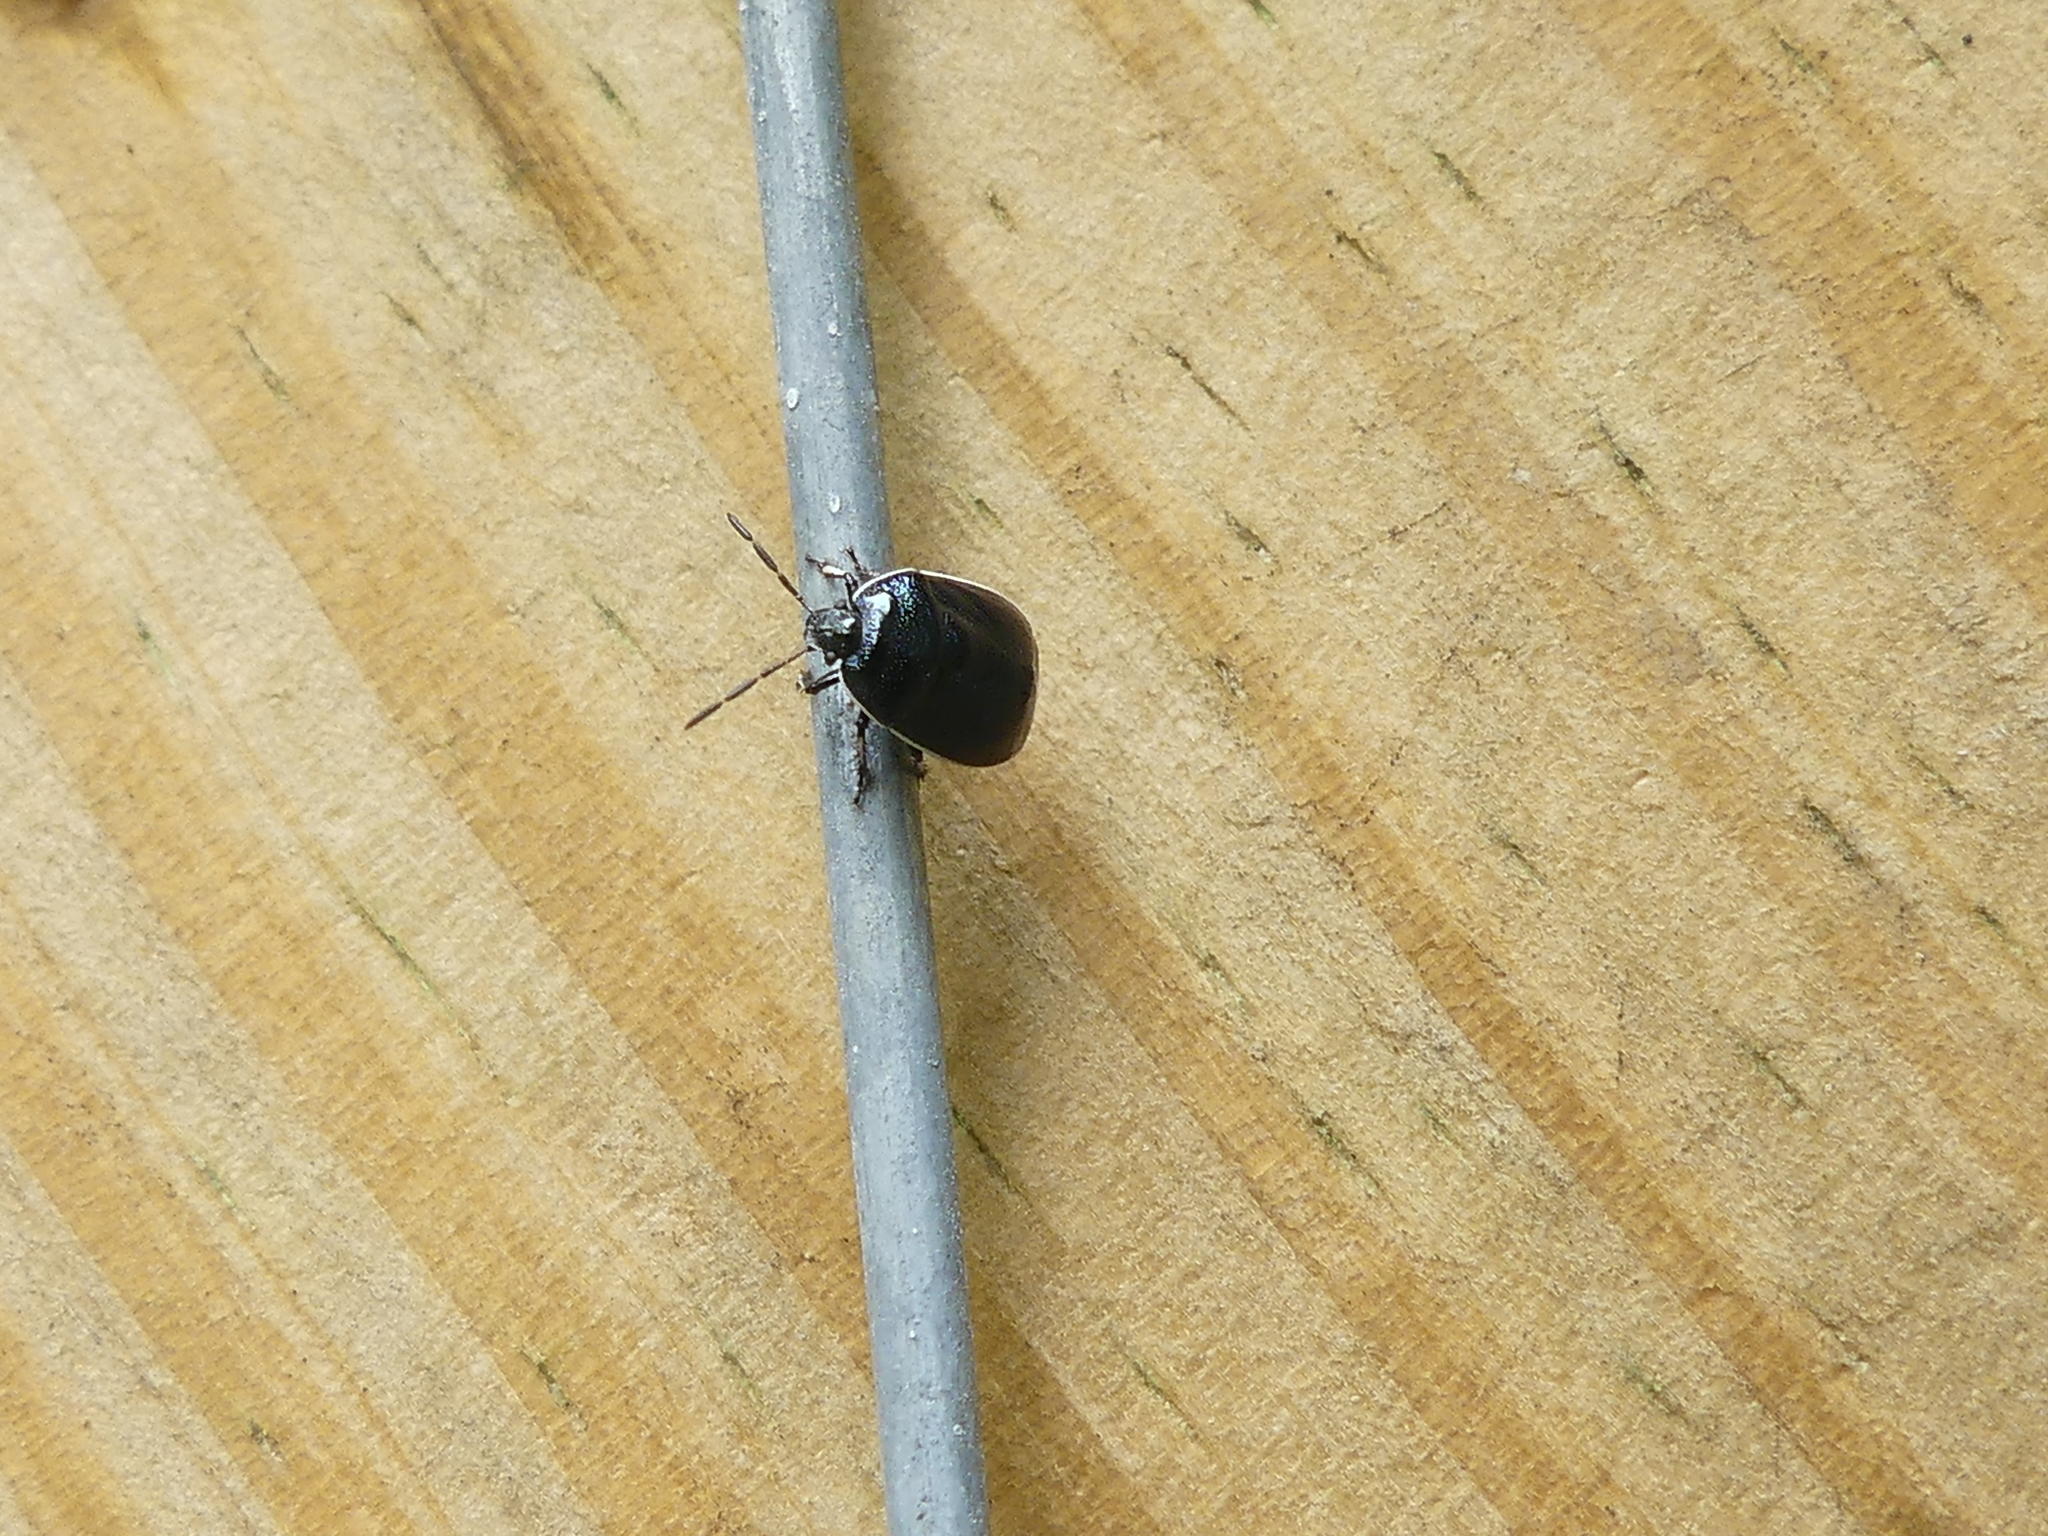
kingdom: Animalia
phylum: Arthropoda
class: Insecta
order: Hemiptera
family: Cydnidae
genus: Sehirus
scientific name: Sehirus cinctus
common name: White-margined burrower bug
